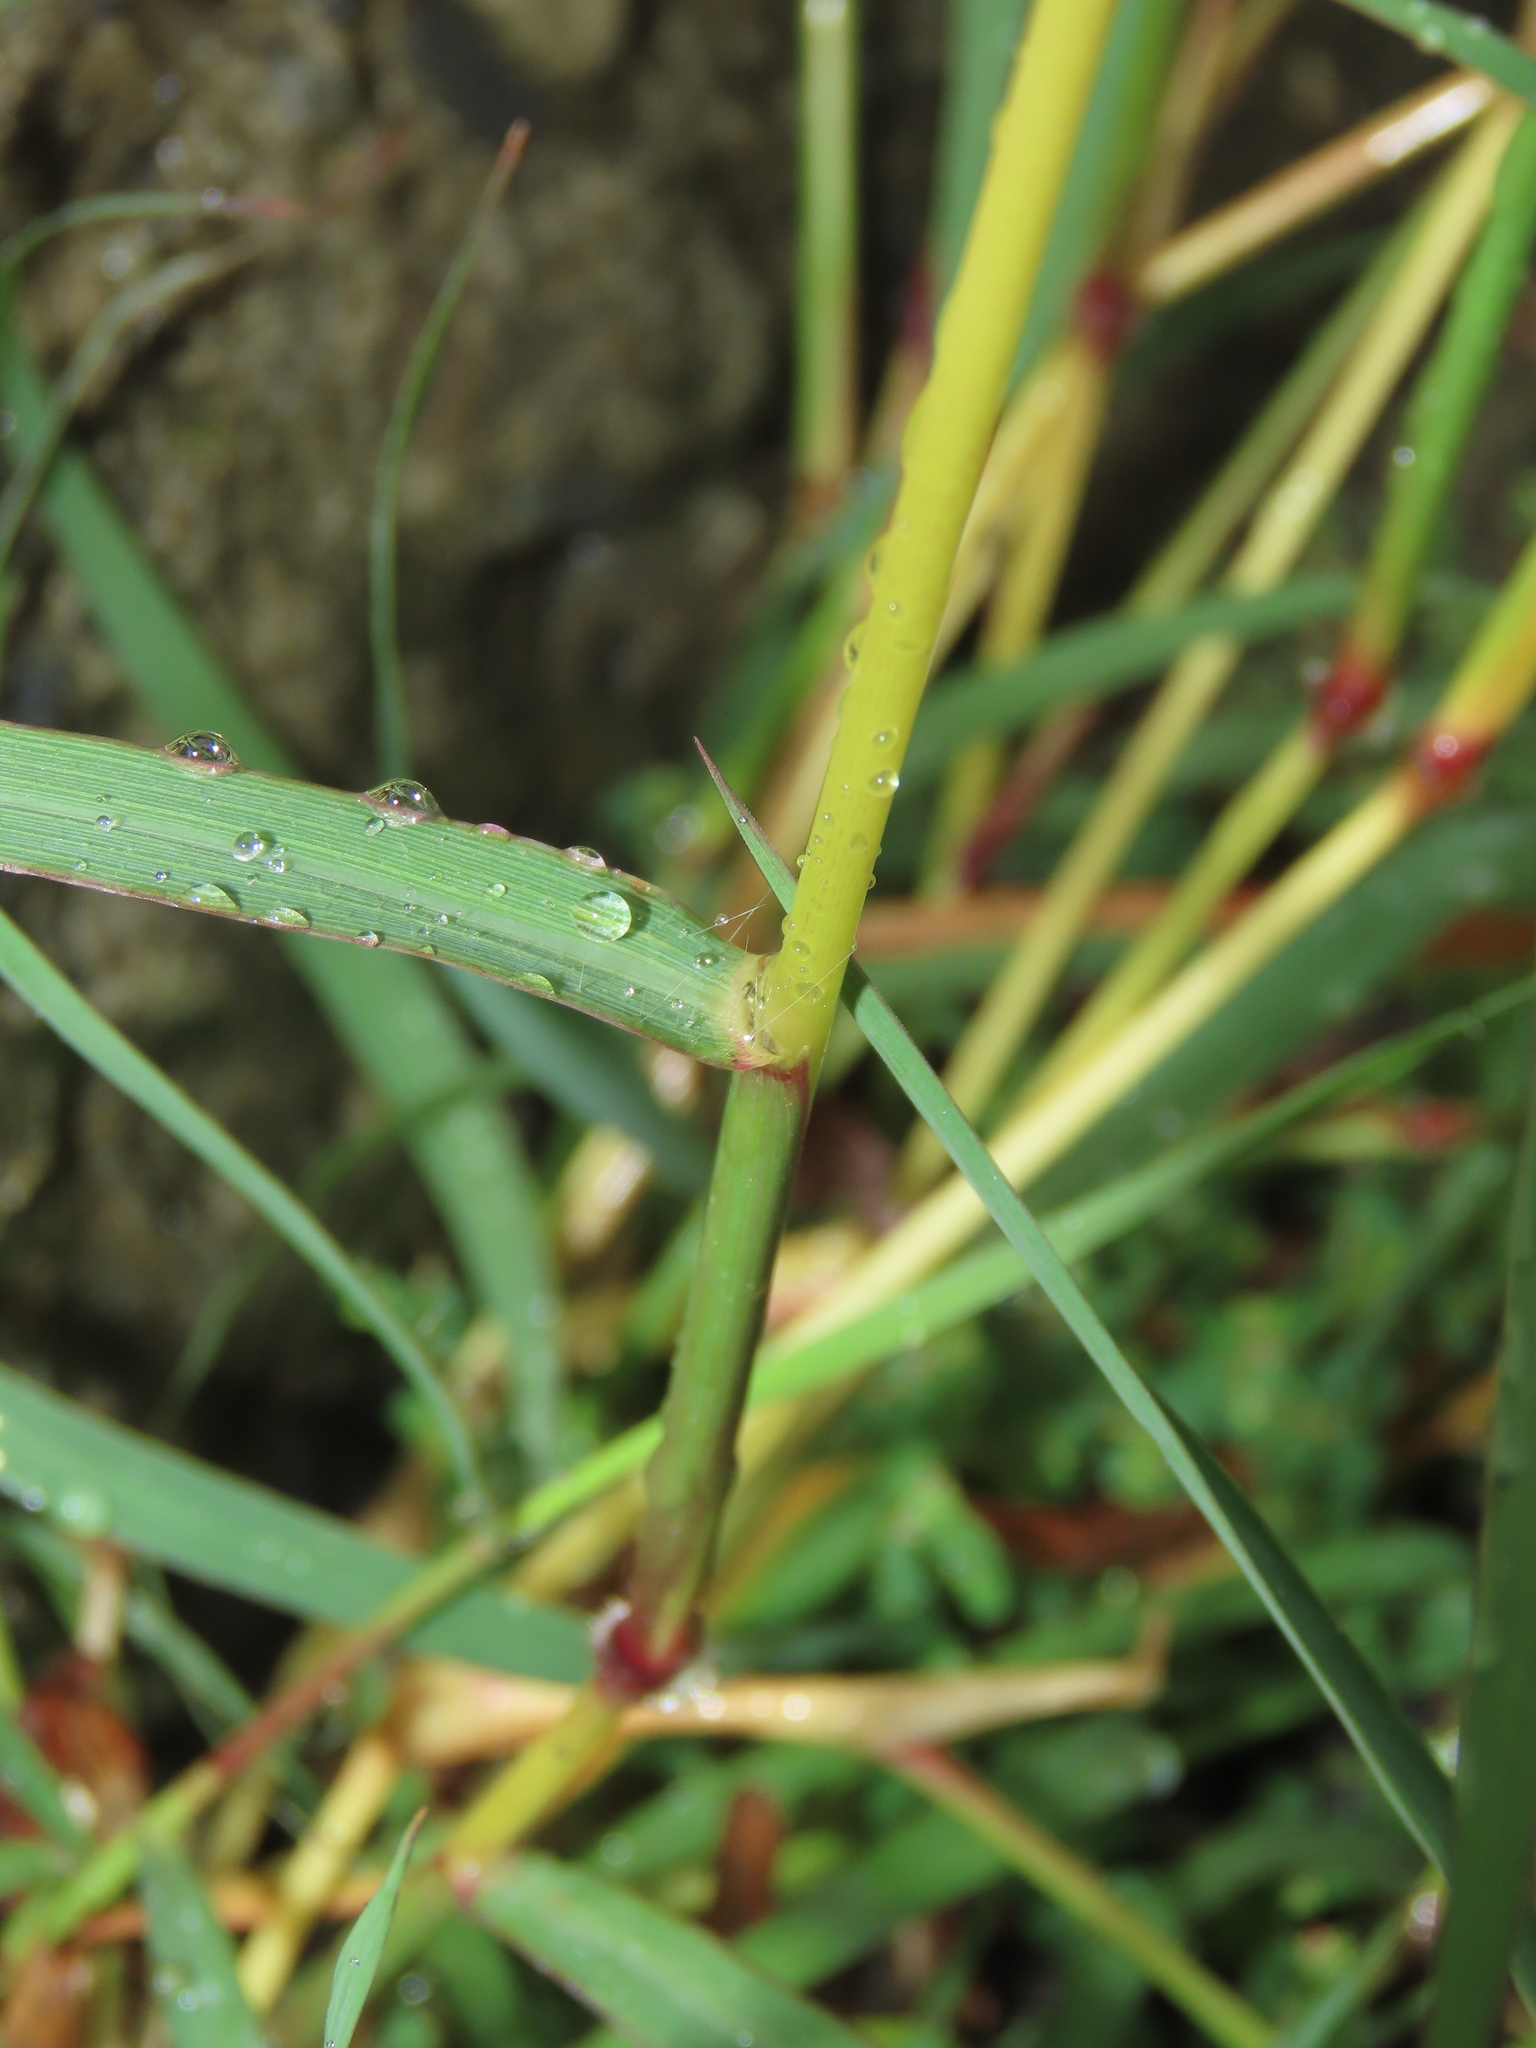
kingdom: Plantae
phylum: Tracheophyta
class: Liliopsida
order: Poales
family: Poaceae
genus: Dichanthium
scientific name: Dichanthium annulatum
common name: Kleberg's bluestem
